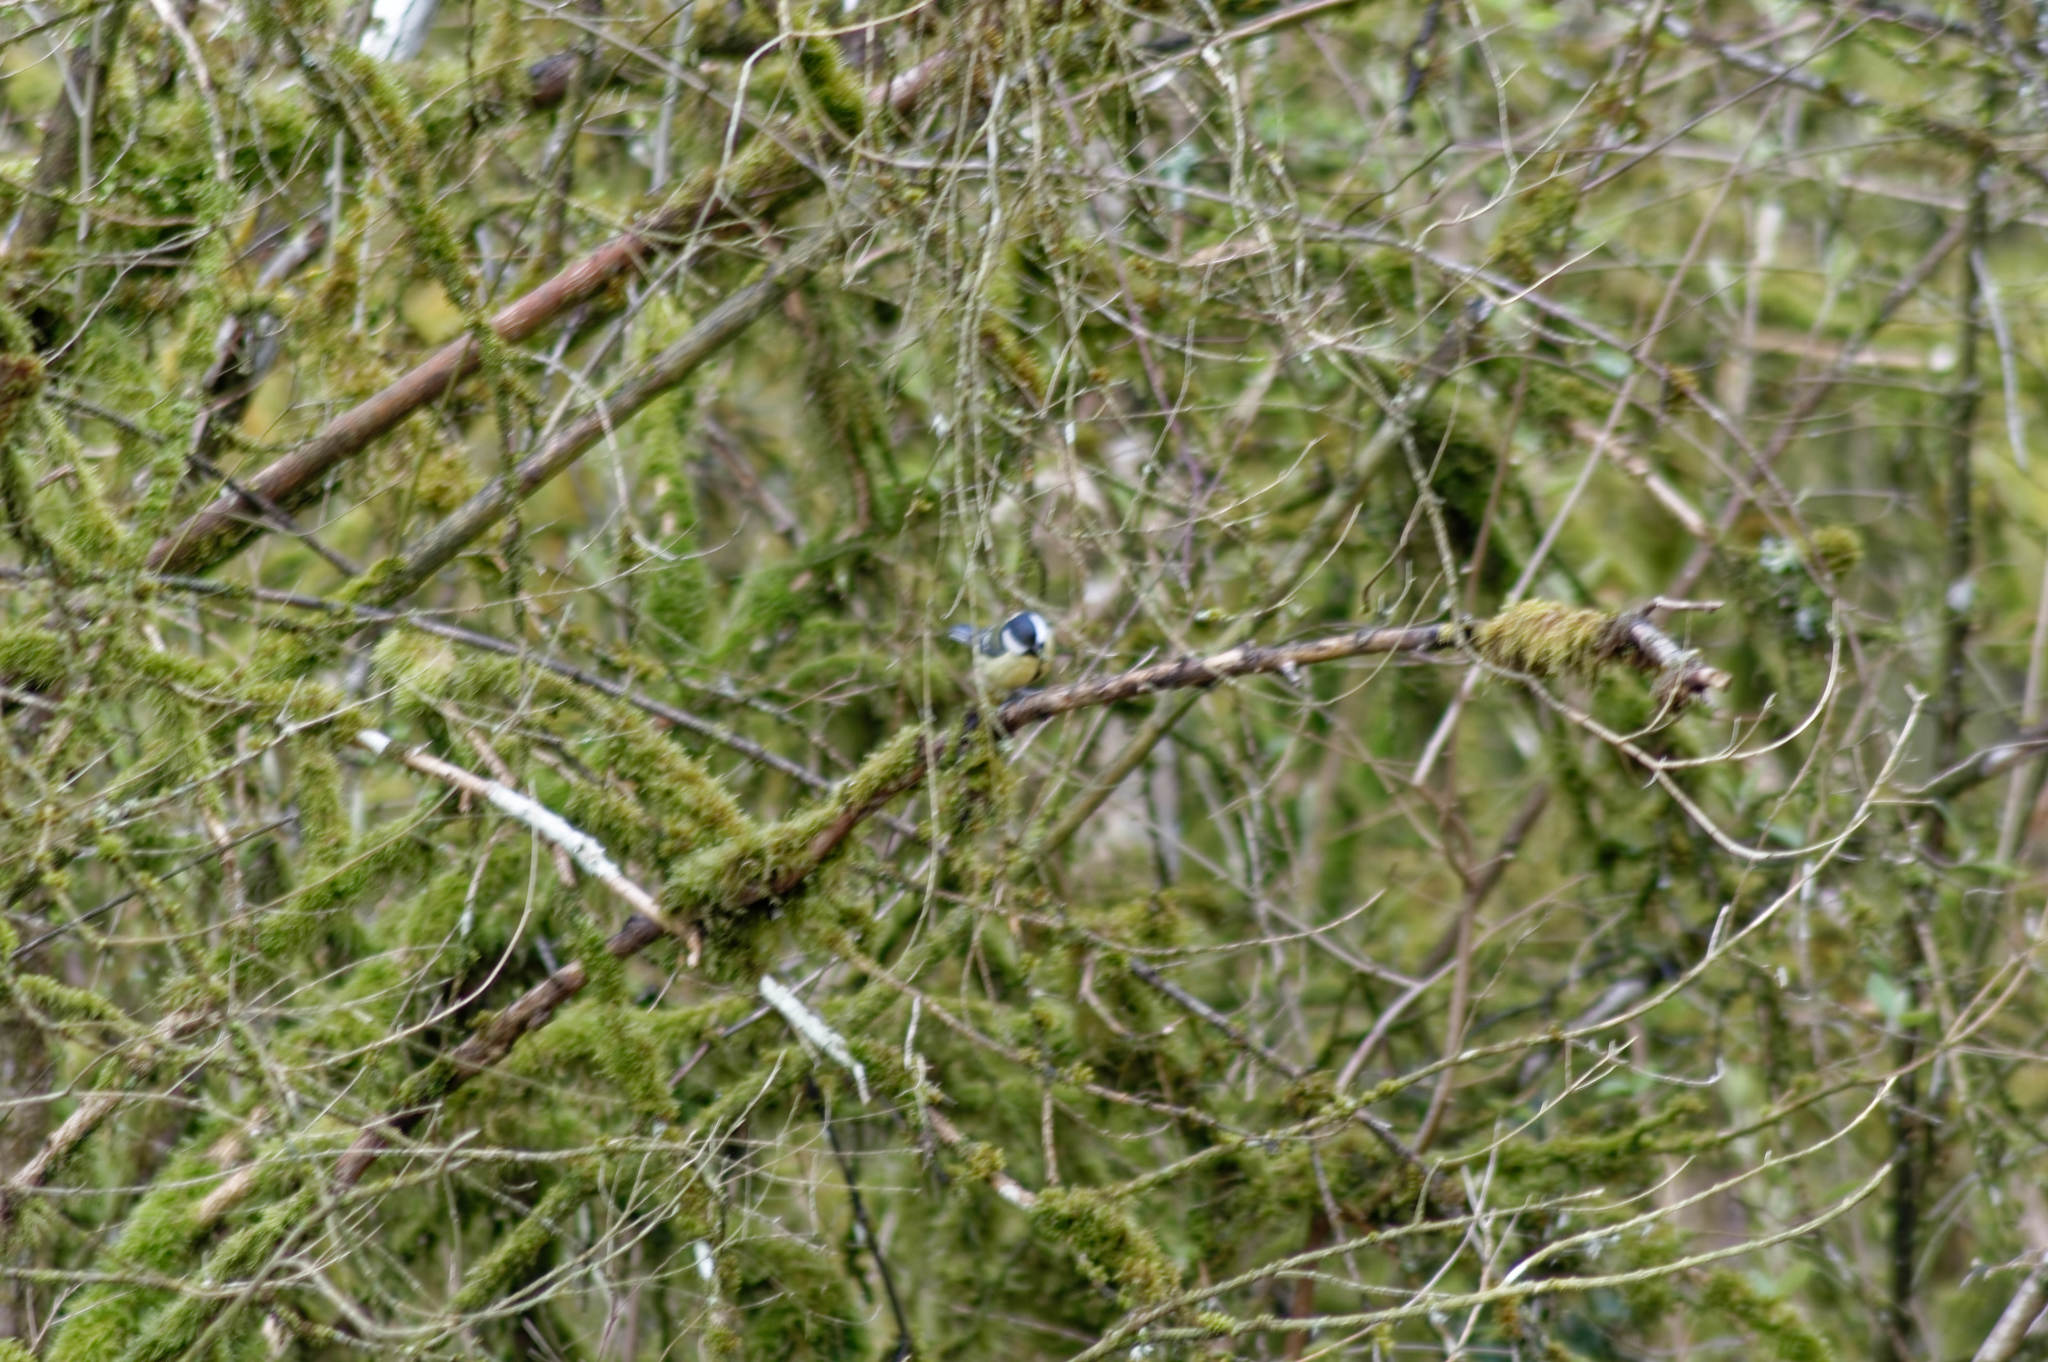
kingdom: Animalia
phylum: Chordata
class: Aves
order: Passeriformes
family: Paridae
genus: Parus
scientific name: Parus major
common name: Great tit
